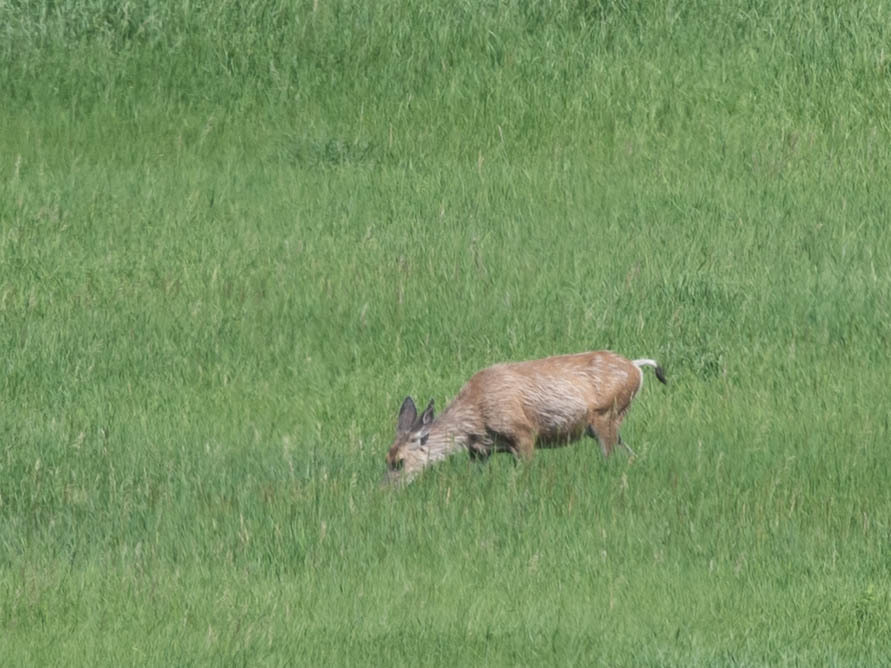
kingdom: Animalia
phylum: Chordata
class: Mammalia
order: Artiodactyla
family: Cervidae
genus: Odocoileus
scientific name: Odocoileus hemionus
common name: Mule deer
